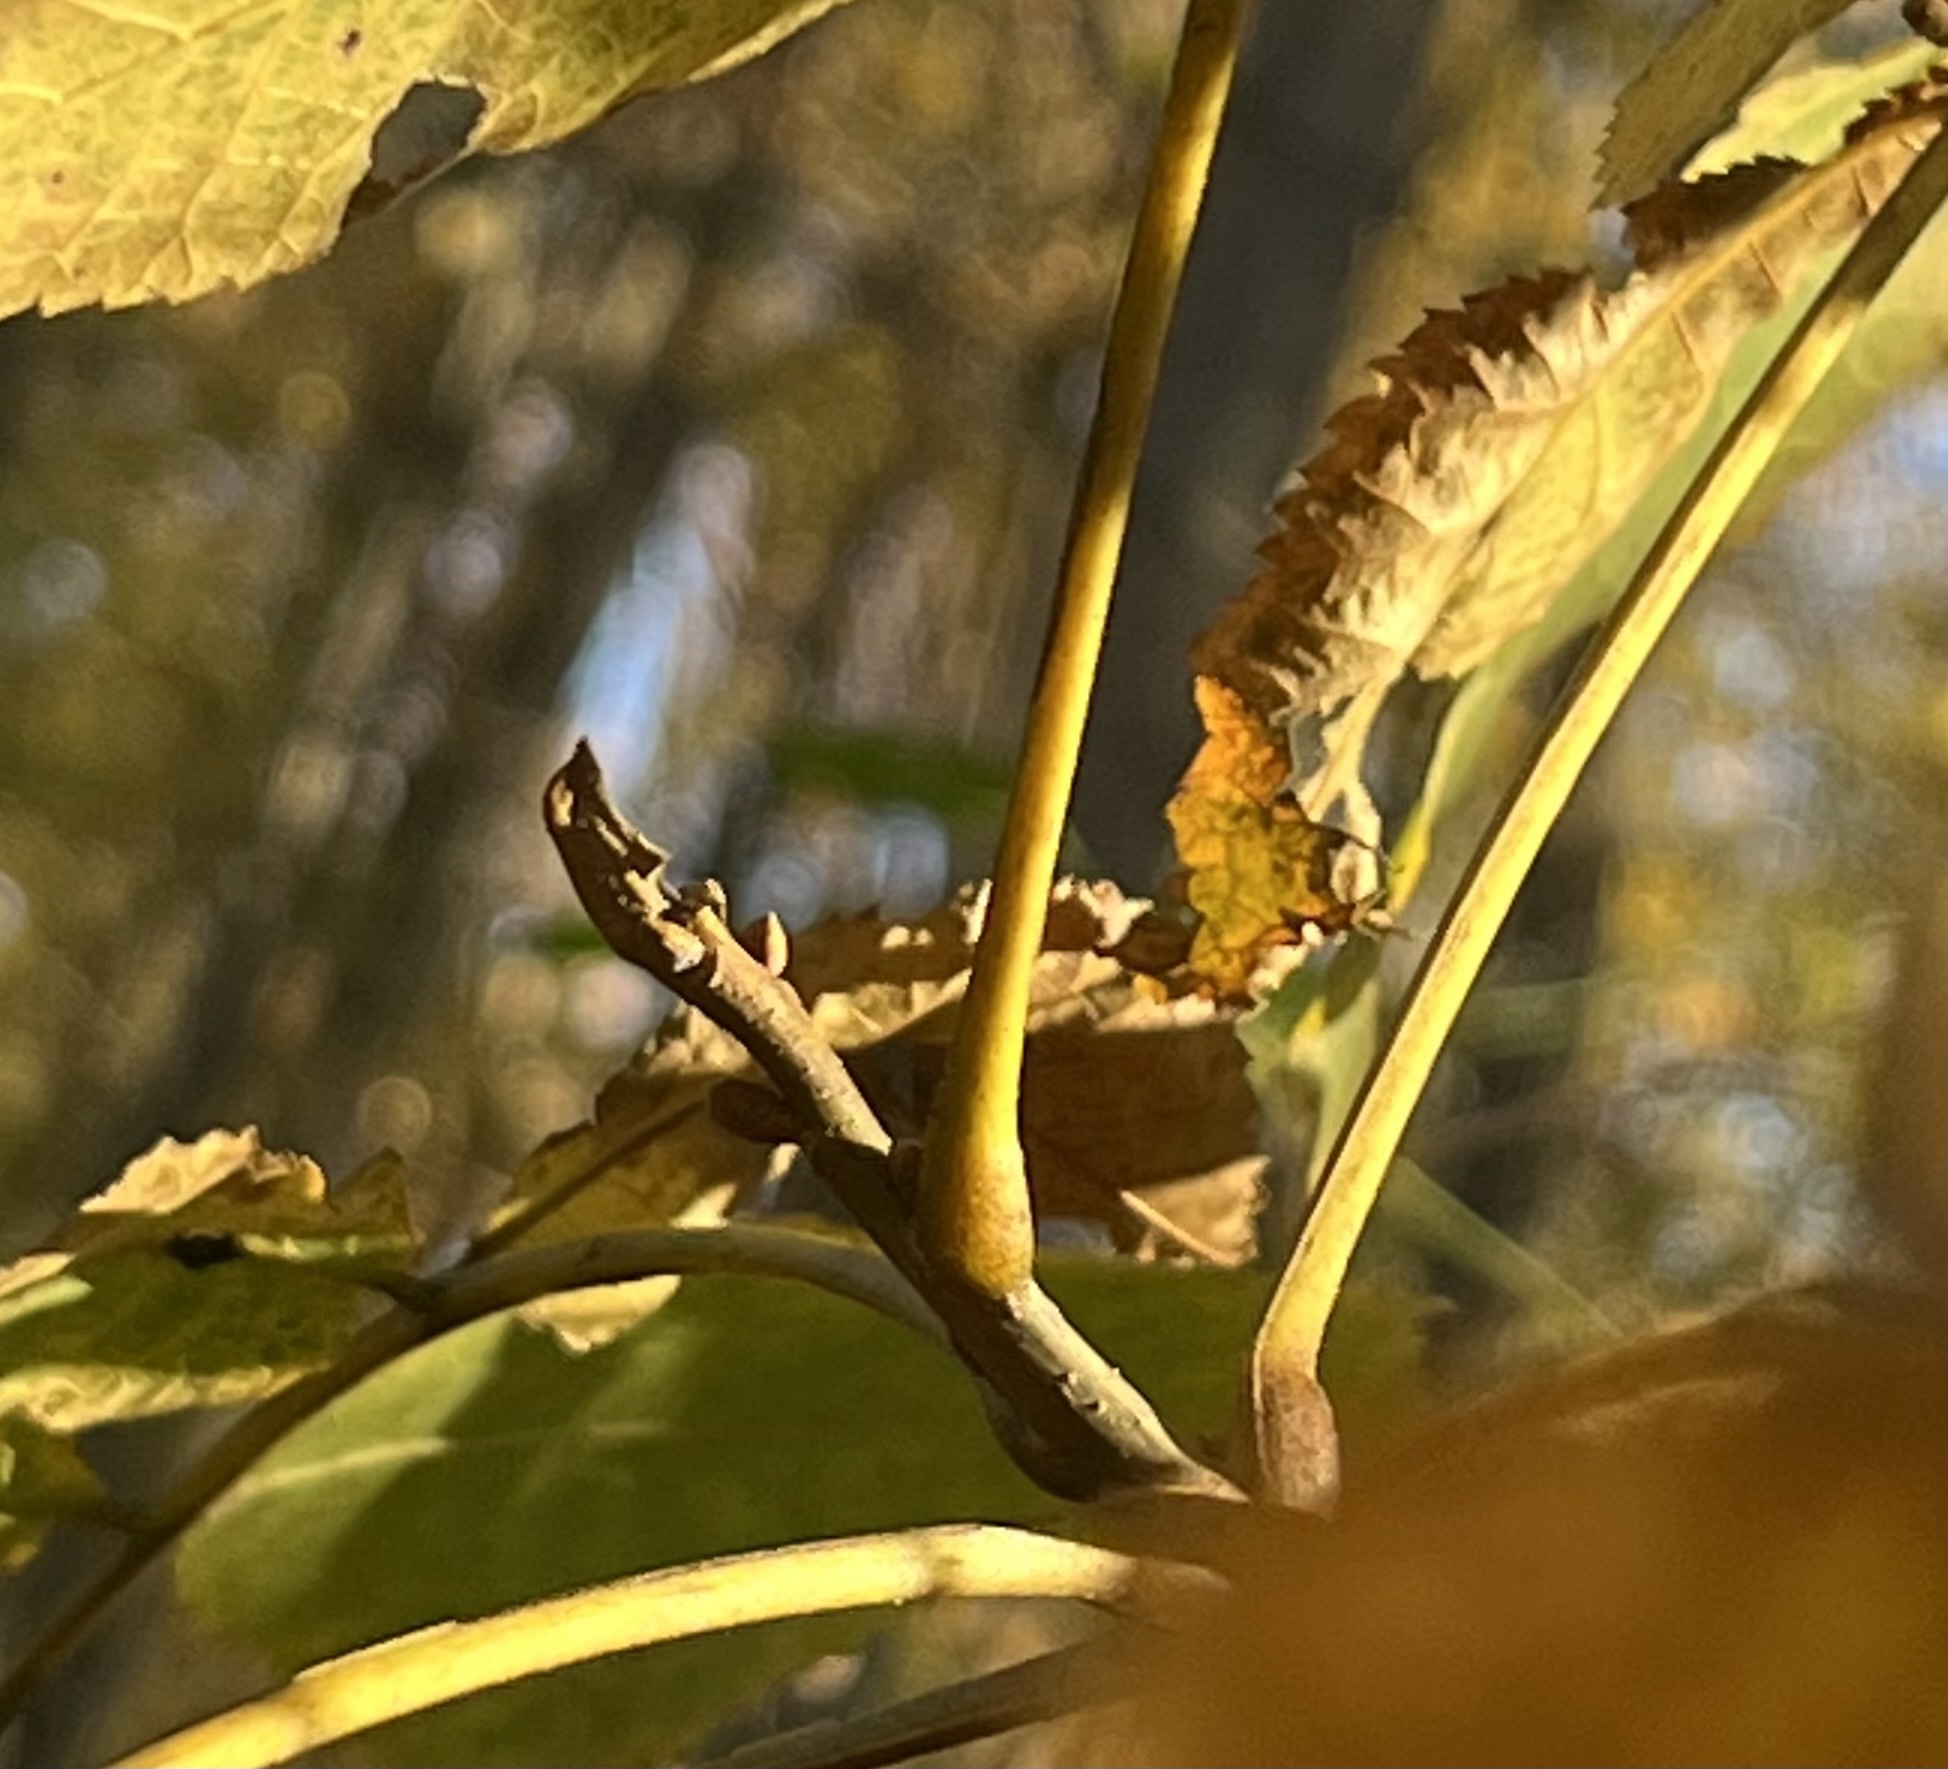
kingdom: Plantae
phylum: Tracheophyta
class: Magnoliopsida
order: Fagales
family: Juglandaceae
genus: Carya
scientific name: Carya cordiformis
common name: Bitternut hickory
